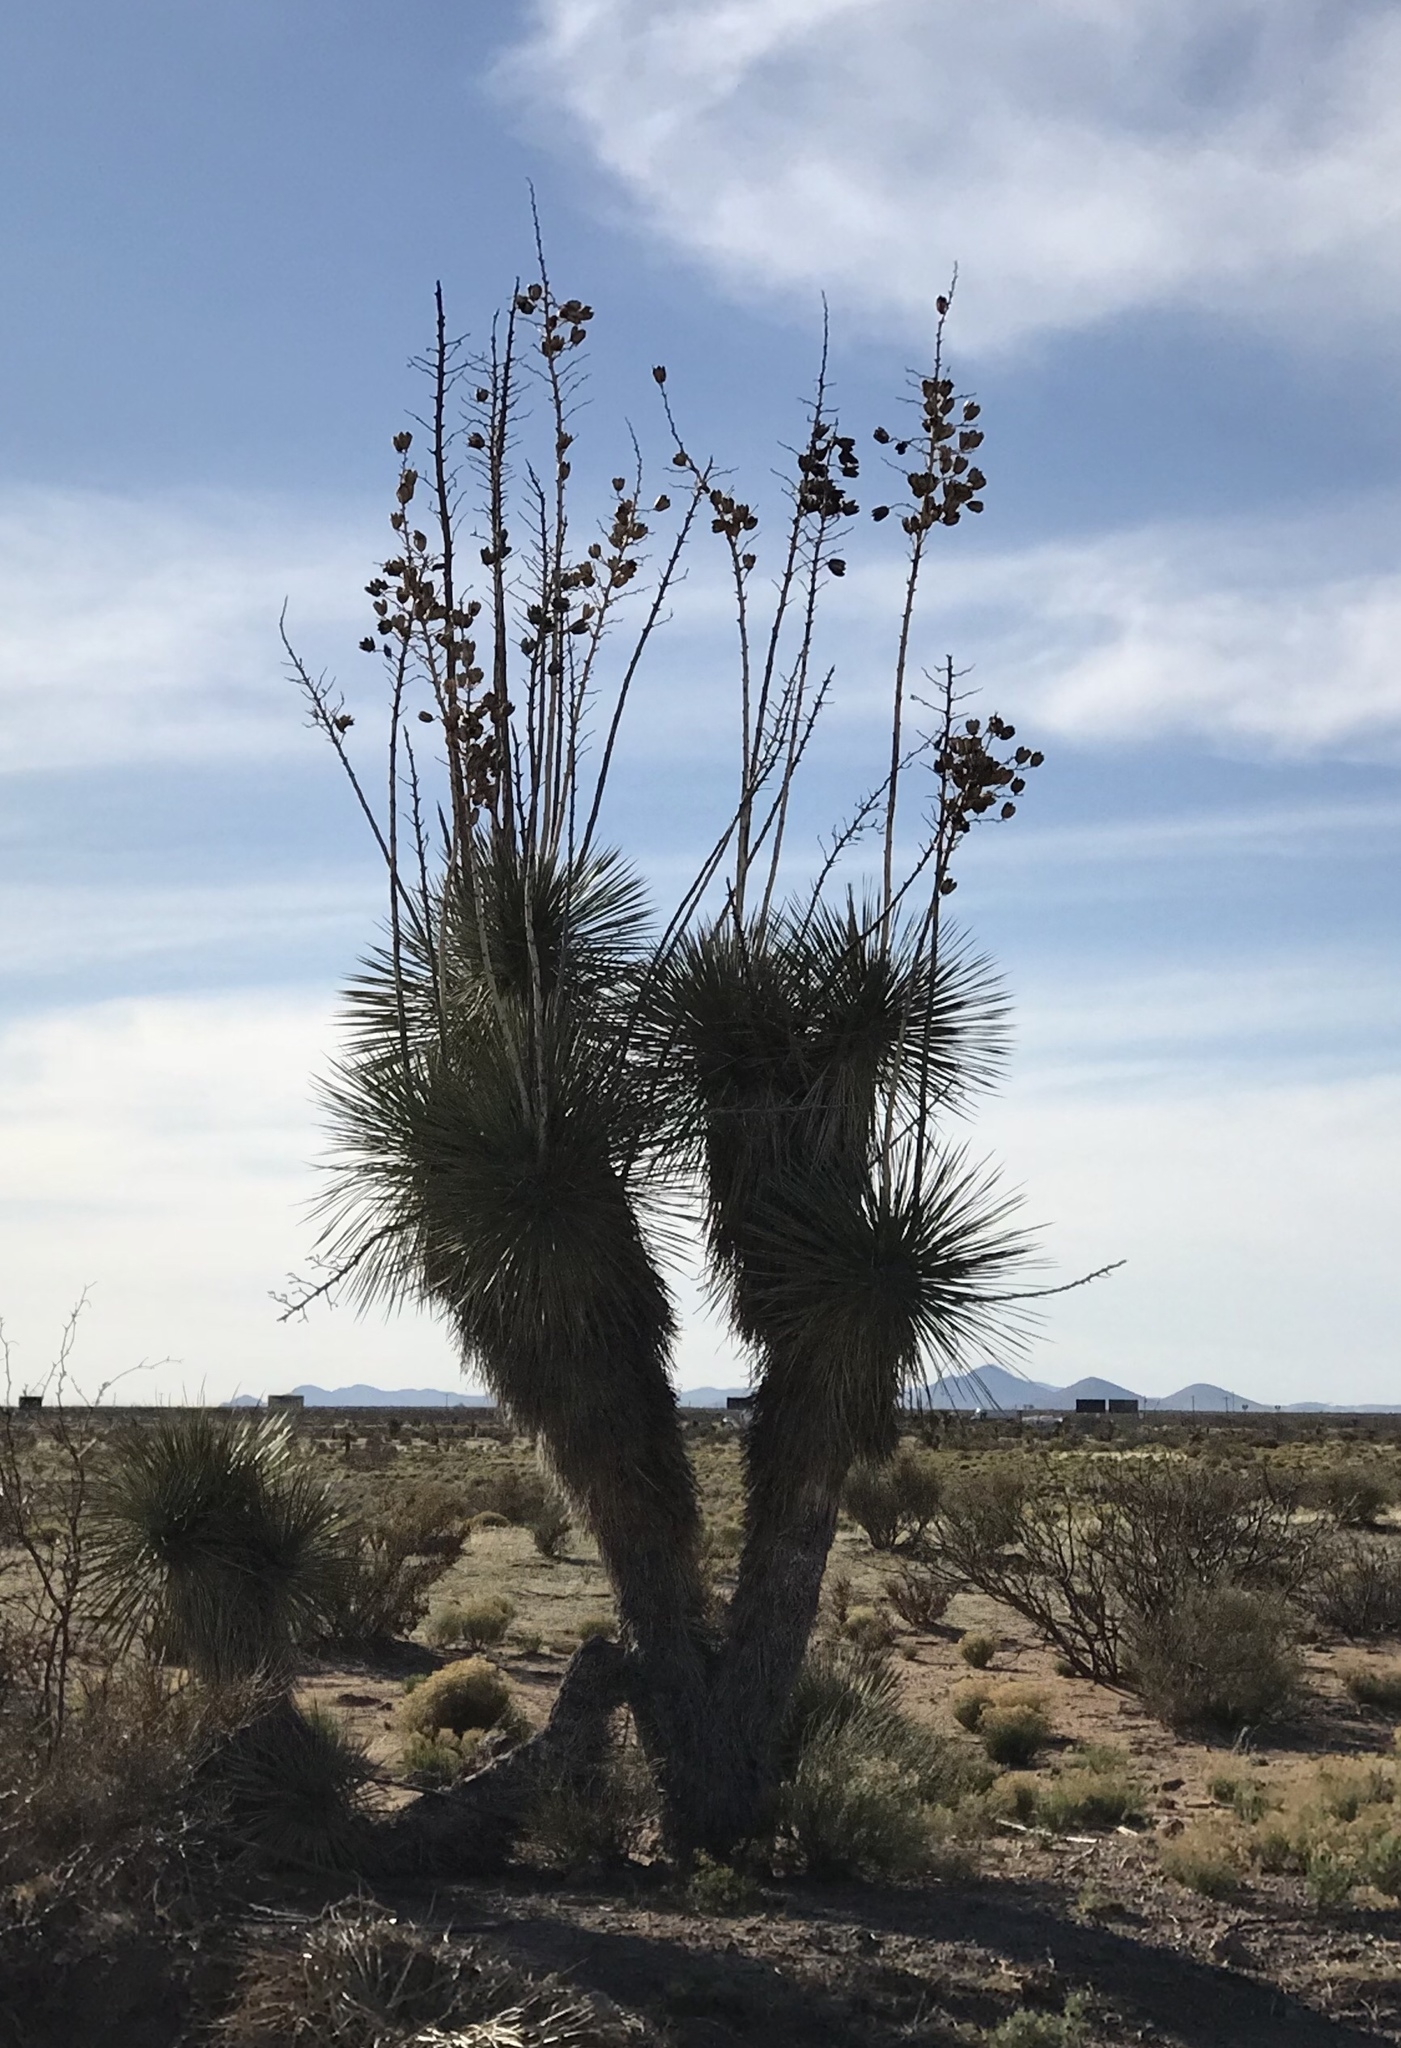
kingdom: Plantae
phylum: Tracheophyta
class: Liliopsida
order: Asparagales
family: Asparagaceae
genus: Yucca
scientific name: Yucca elata
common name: Palmella
